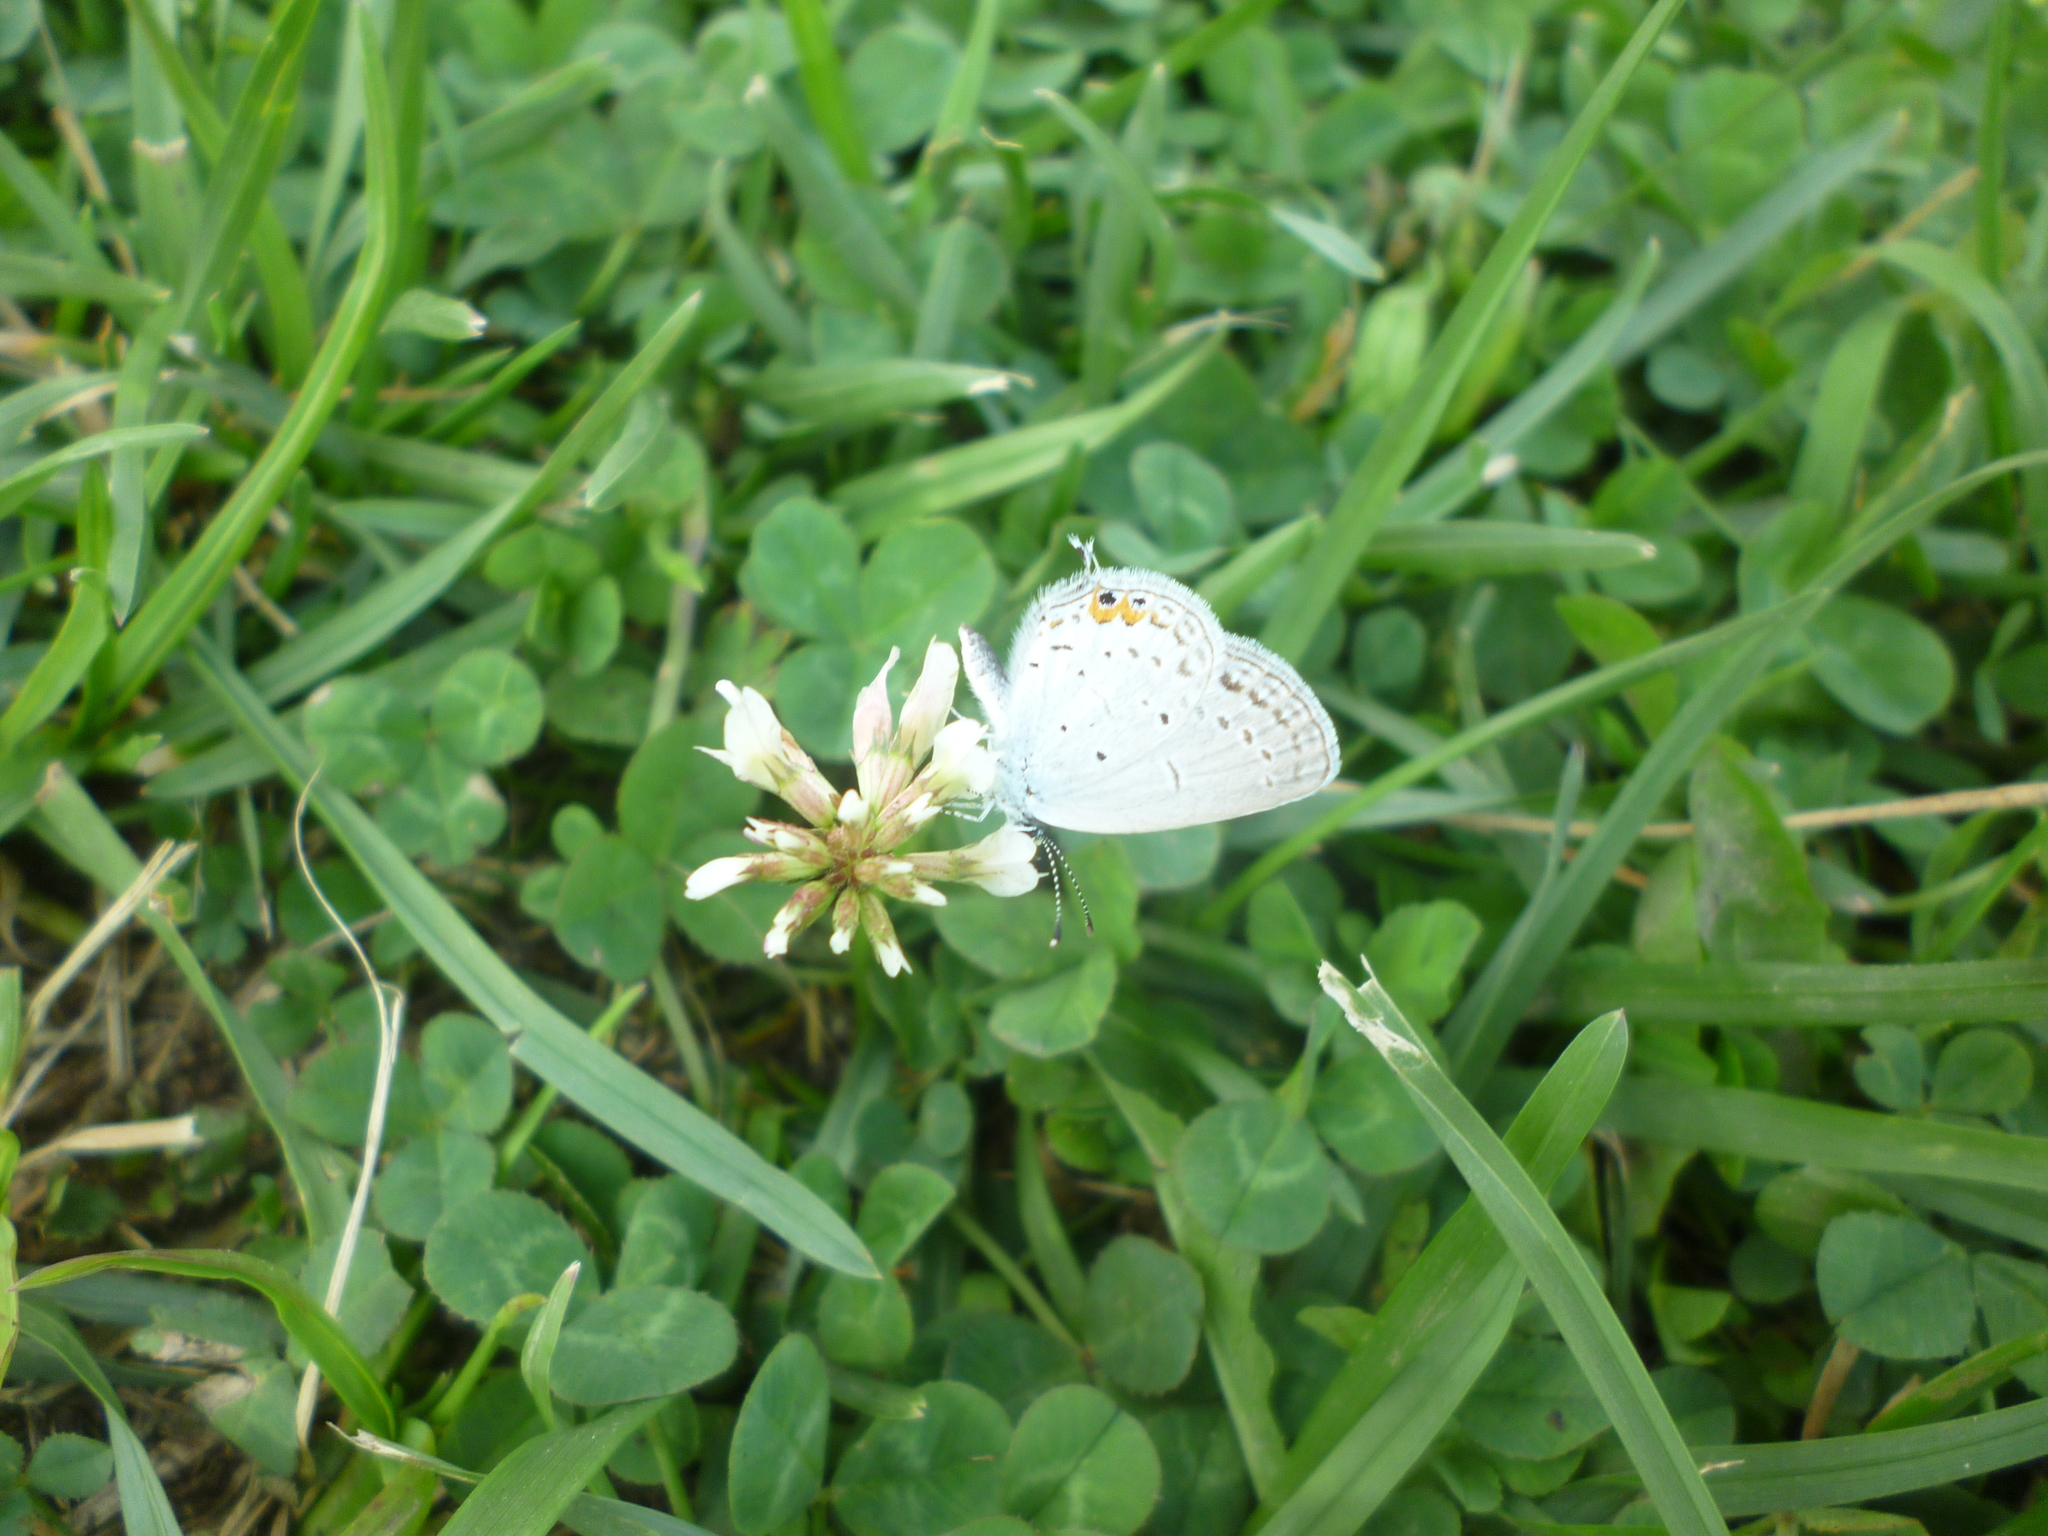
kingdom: Plantae
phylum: Tracheophyta
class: Magnoliopsida
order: Fabales
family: Fabaceae
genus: Trifolium
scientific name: Trifolium repens
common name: White clover
